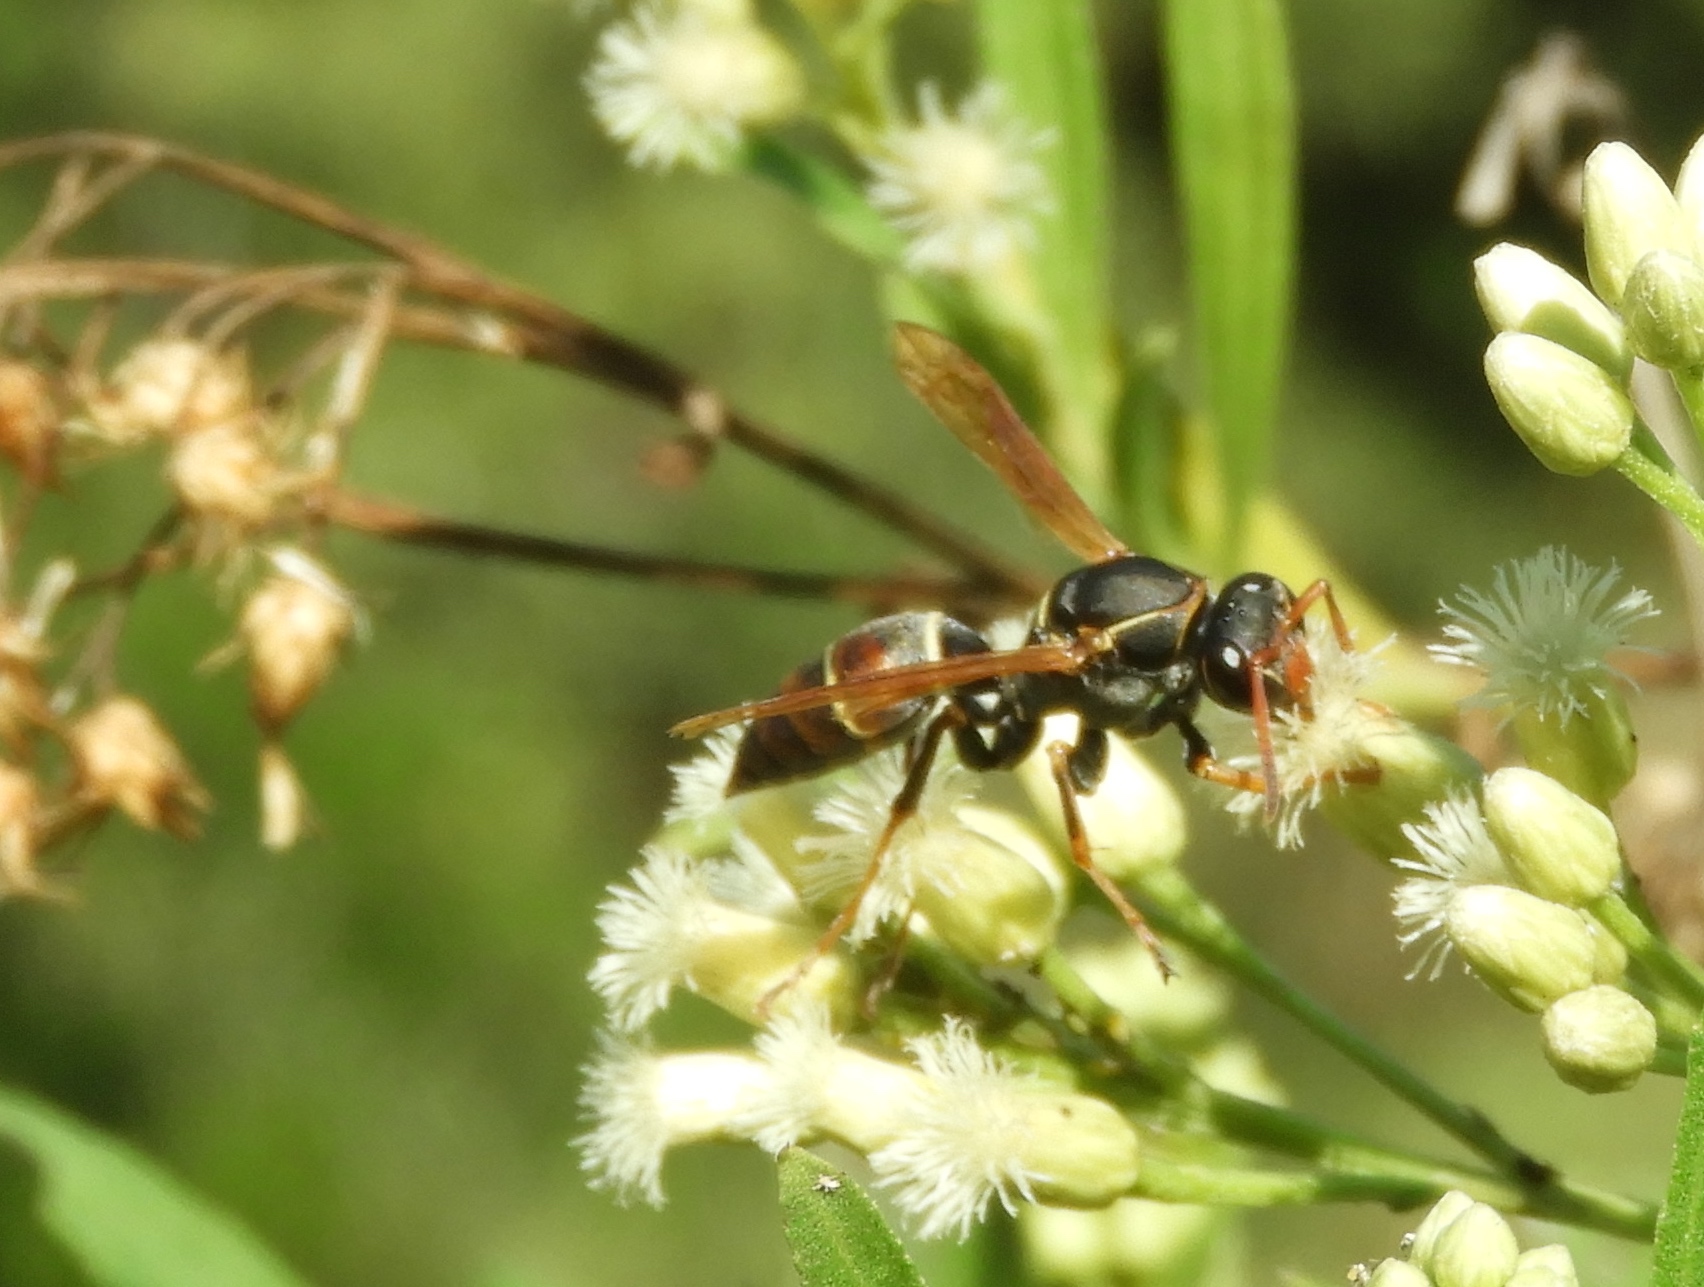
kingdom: Animalia
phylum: Arthropoda
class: Insecta
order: Hymenoptera
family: Eumenidae
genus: Polistes
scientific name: Polistes pacificus
